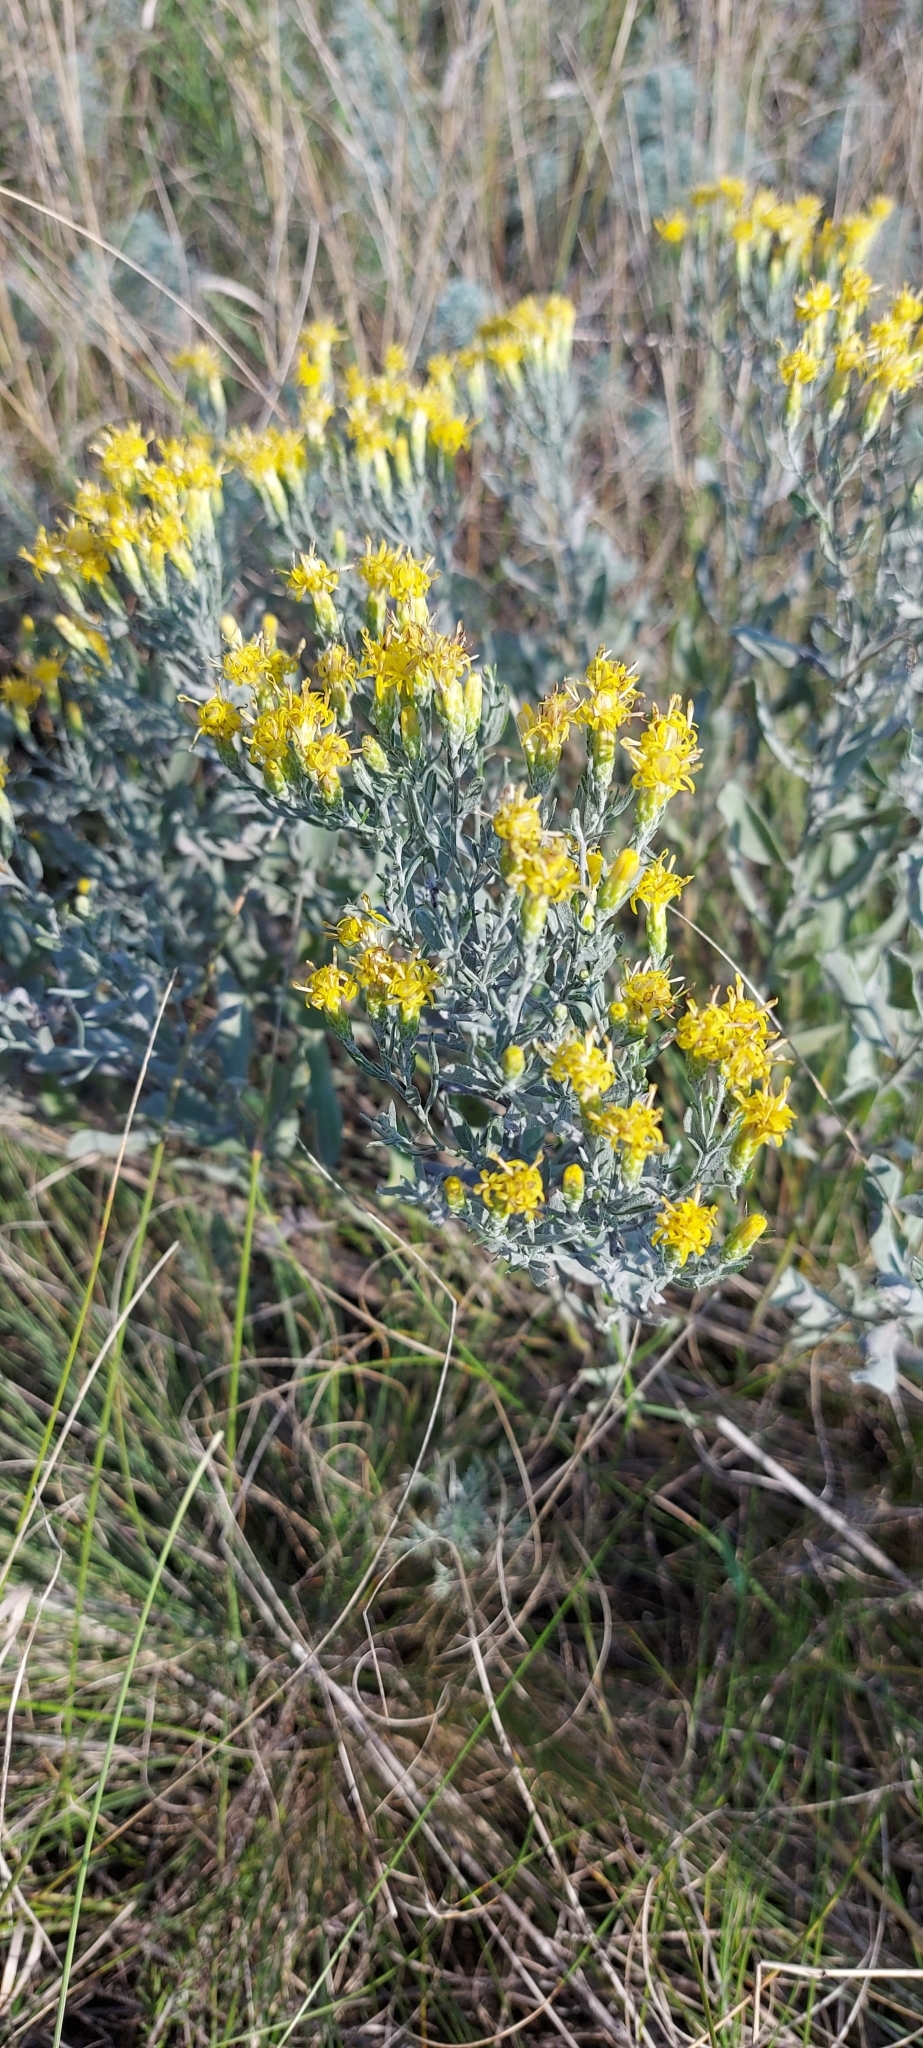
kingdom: Plantae
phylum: Tracheophyta
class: Magnoliopsida
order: Asterales
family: Asteraceae
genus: Galatella
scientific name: Galatella villosa
